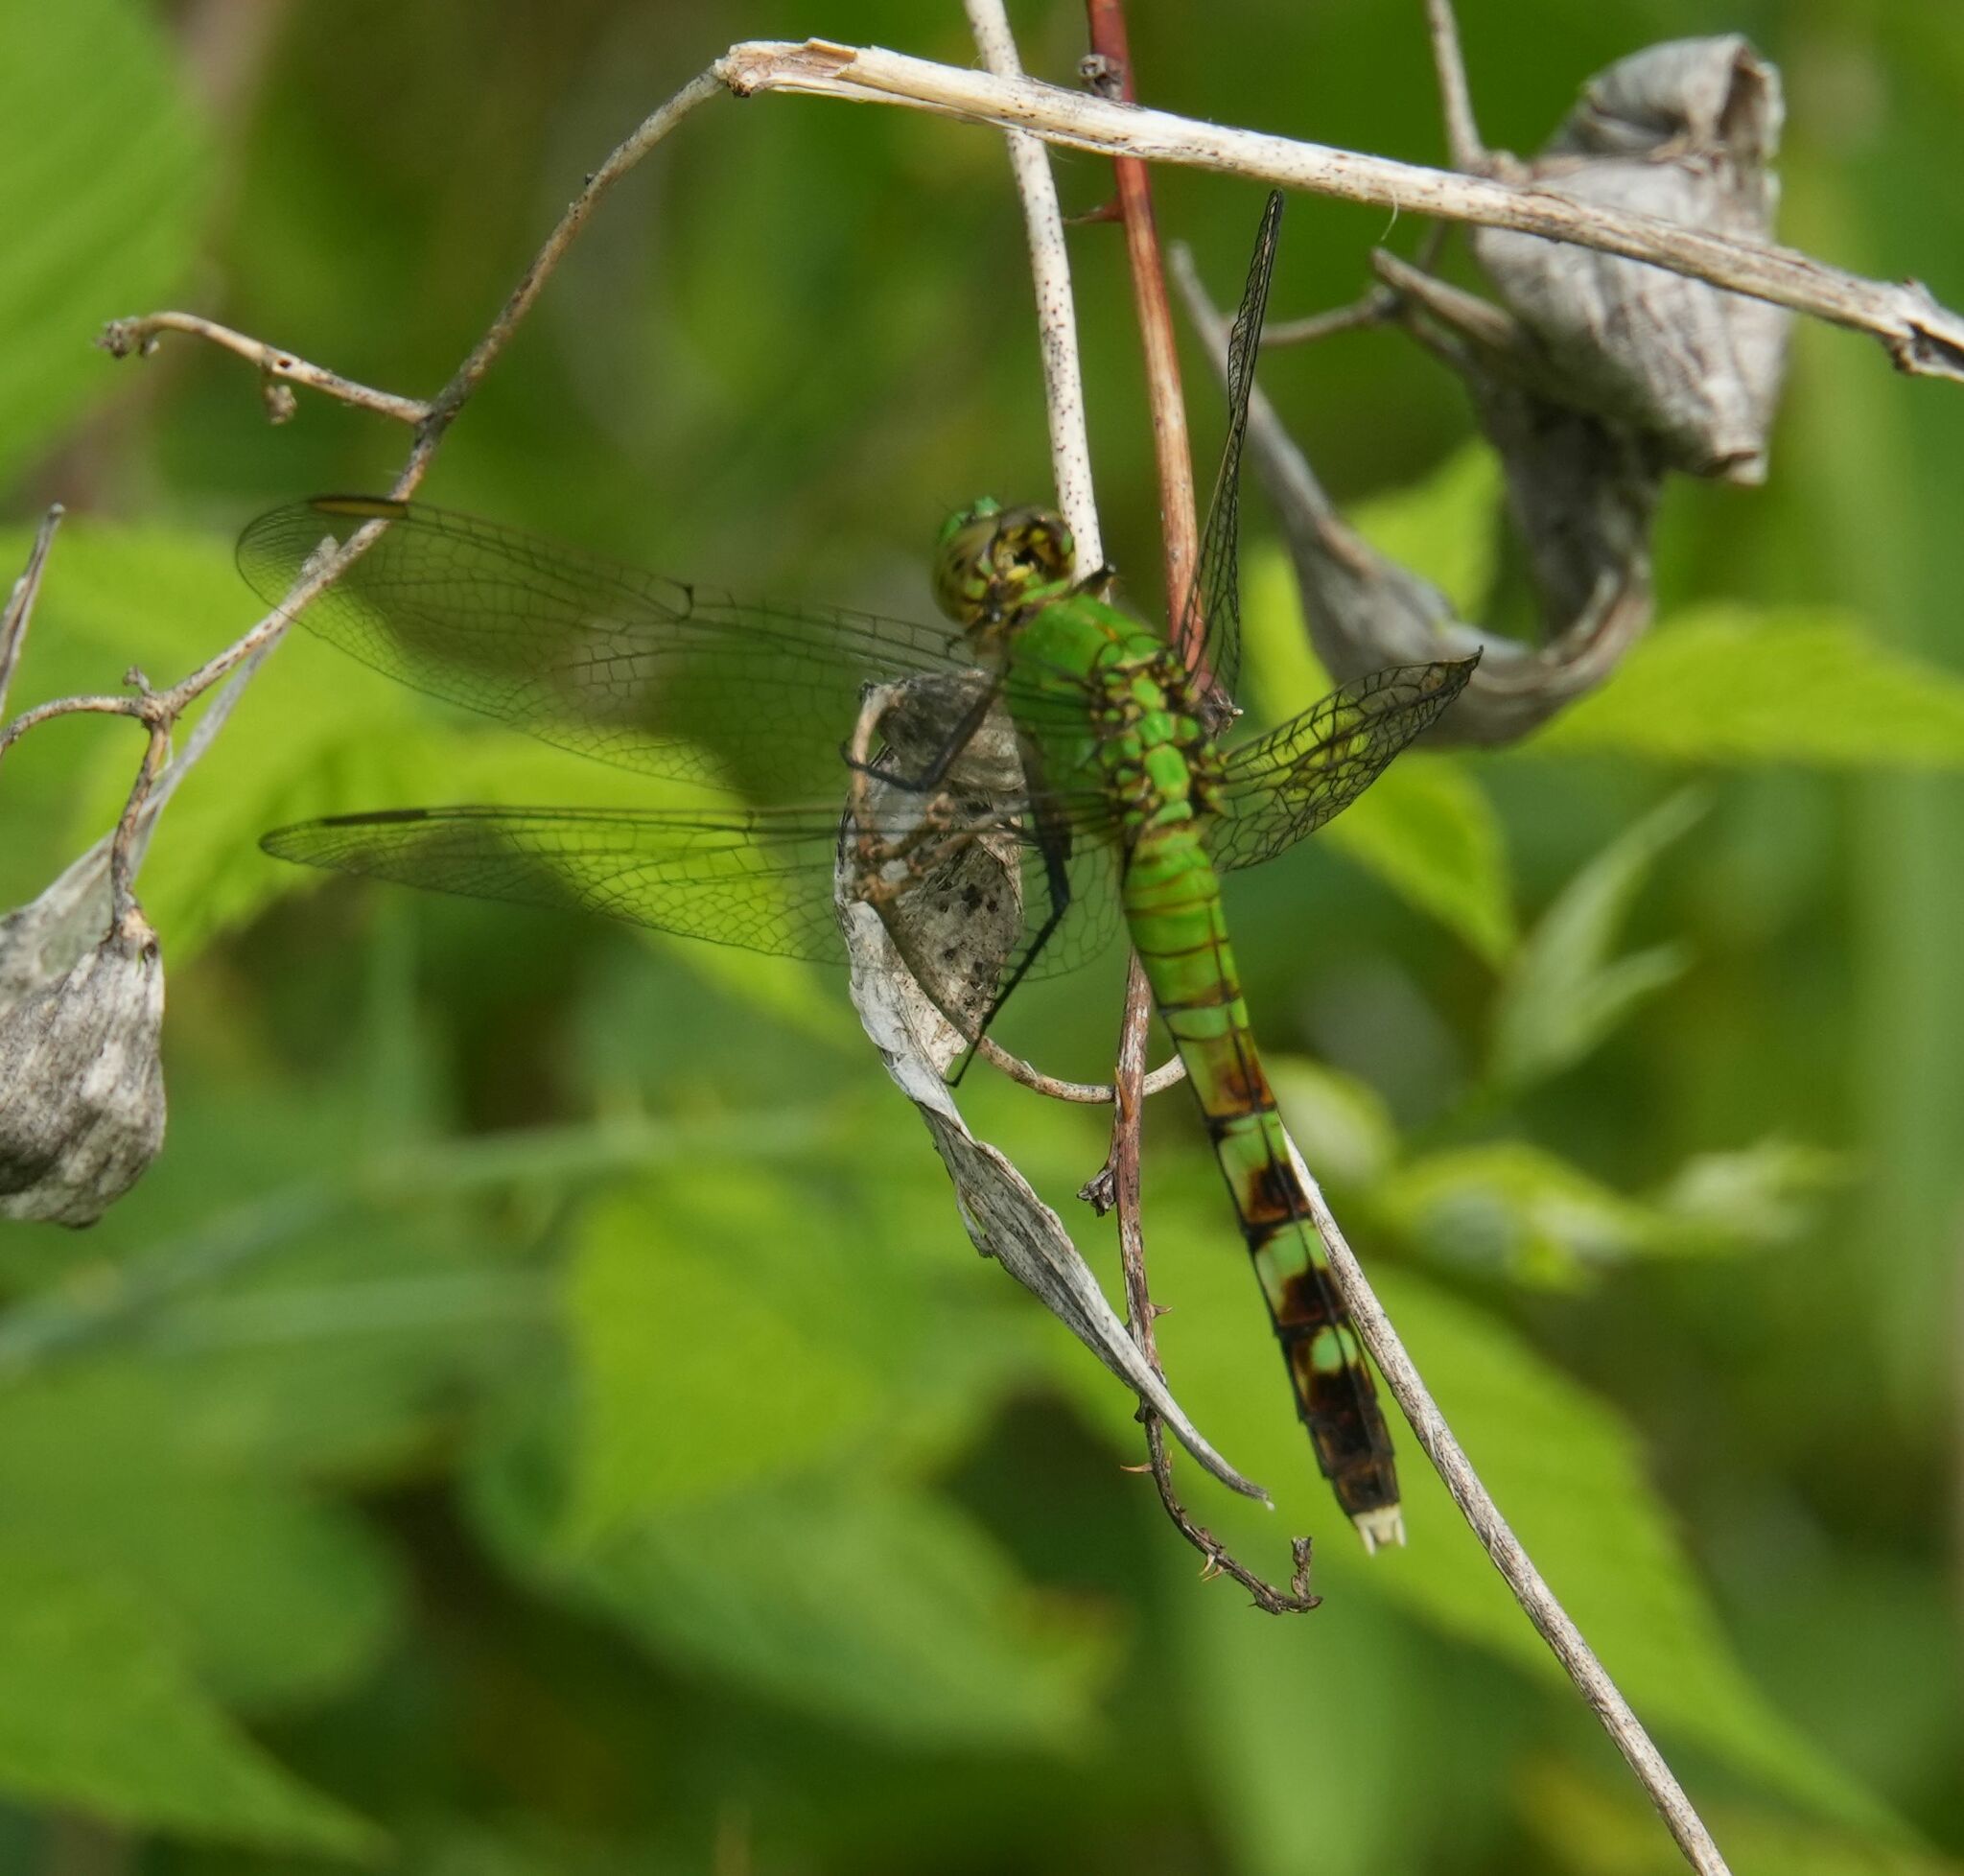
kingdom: Animalia
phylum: Arthropoda
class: Insecta
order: Odonata
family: Libellulidae
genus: Erythemis
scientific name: Erythemis simplicicollis
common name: Eastern pondhawk
